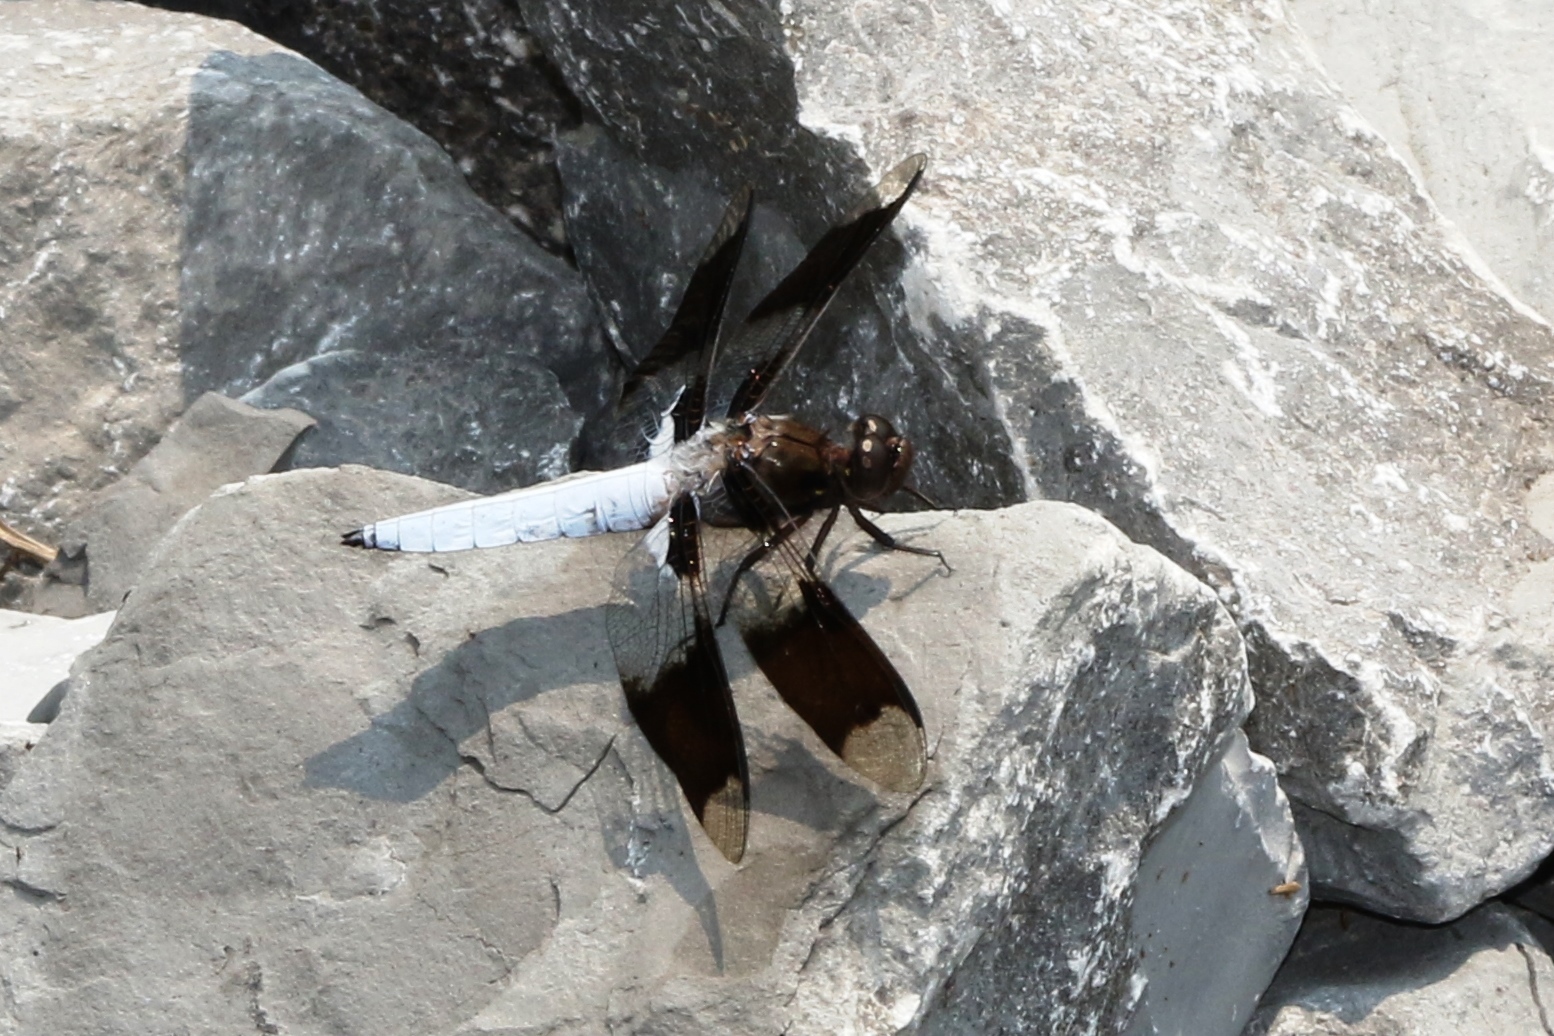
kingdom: Animalia
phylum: Arthropoda
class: Insecta
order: Odonata
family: Libellulidae
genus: Plathemis
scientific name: Plathemis lydia
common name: Common whitetail
